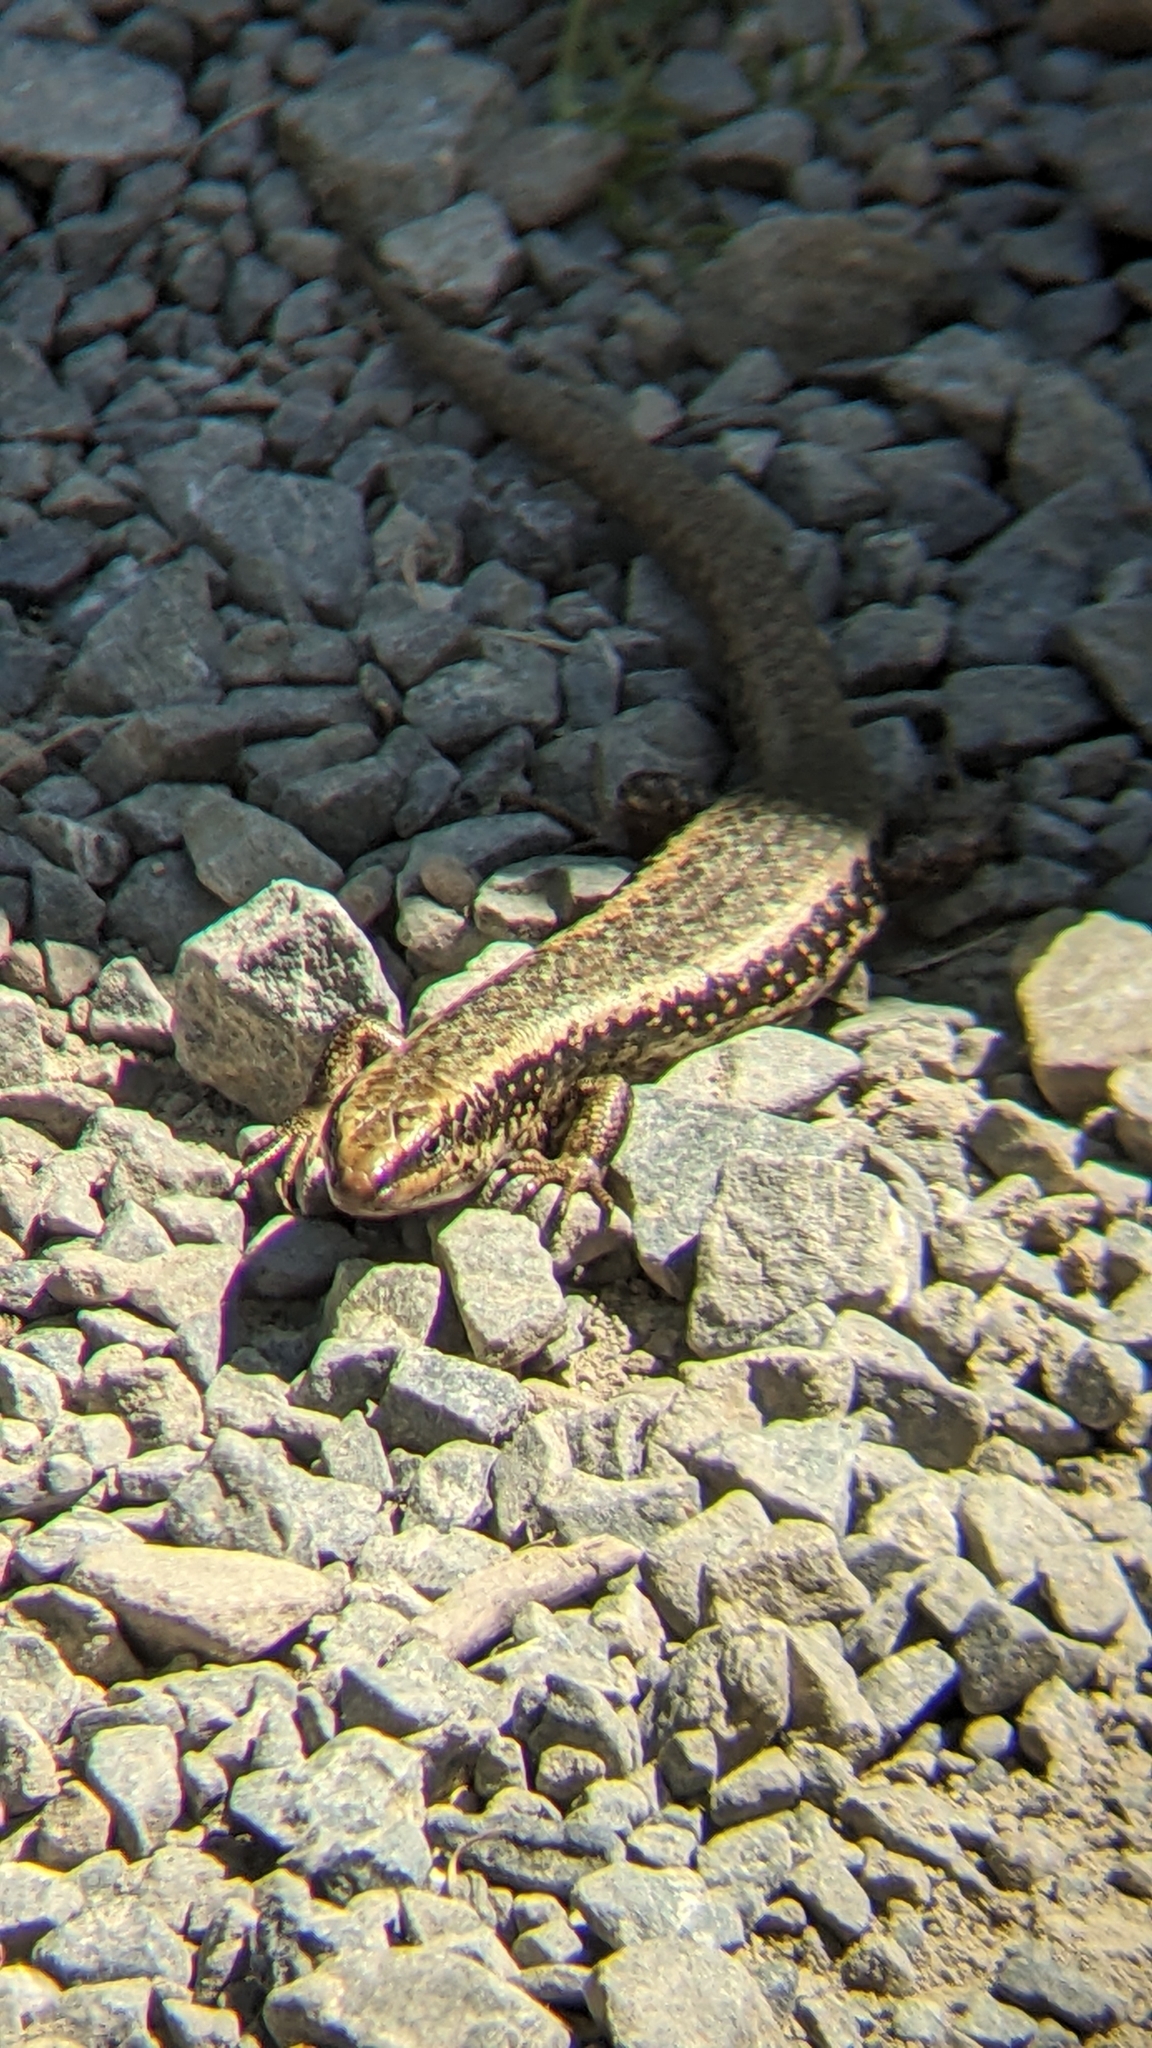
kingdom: Animalia
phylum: Chordata
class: Squamata
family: Scincidae
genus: Oligosoma
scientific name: Oligosoma kokowai
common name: Northern spotted skink
